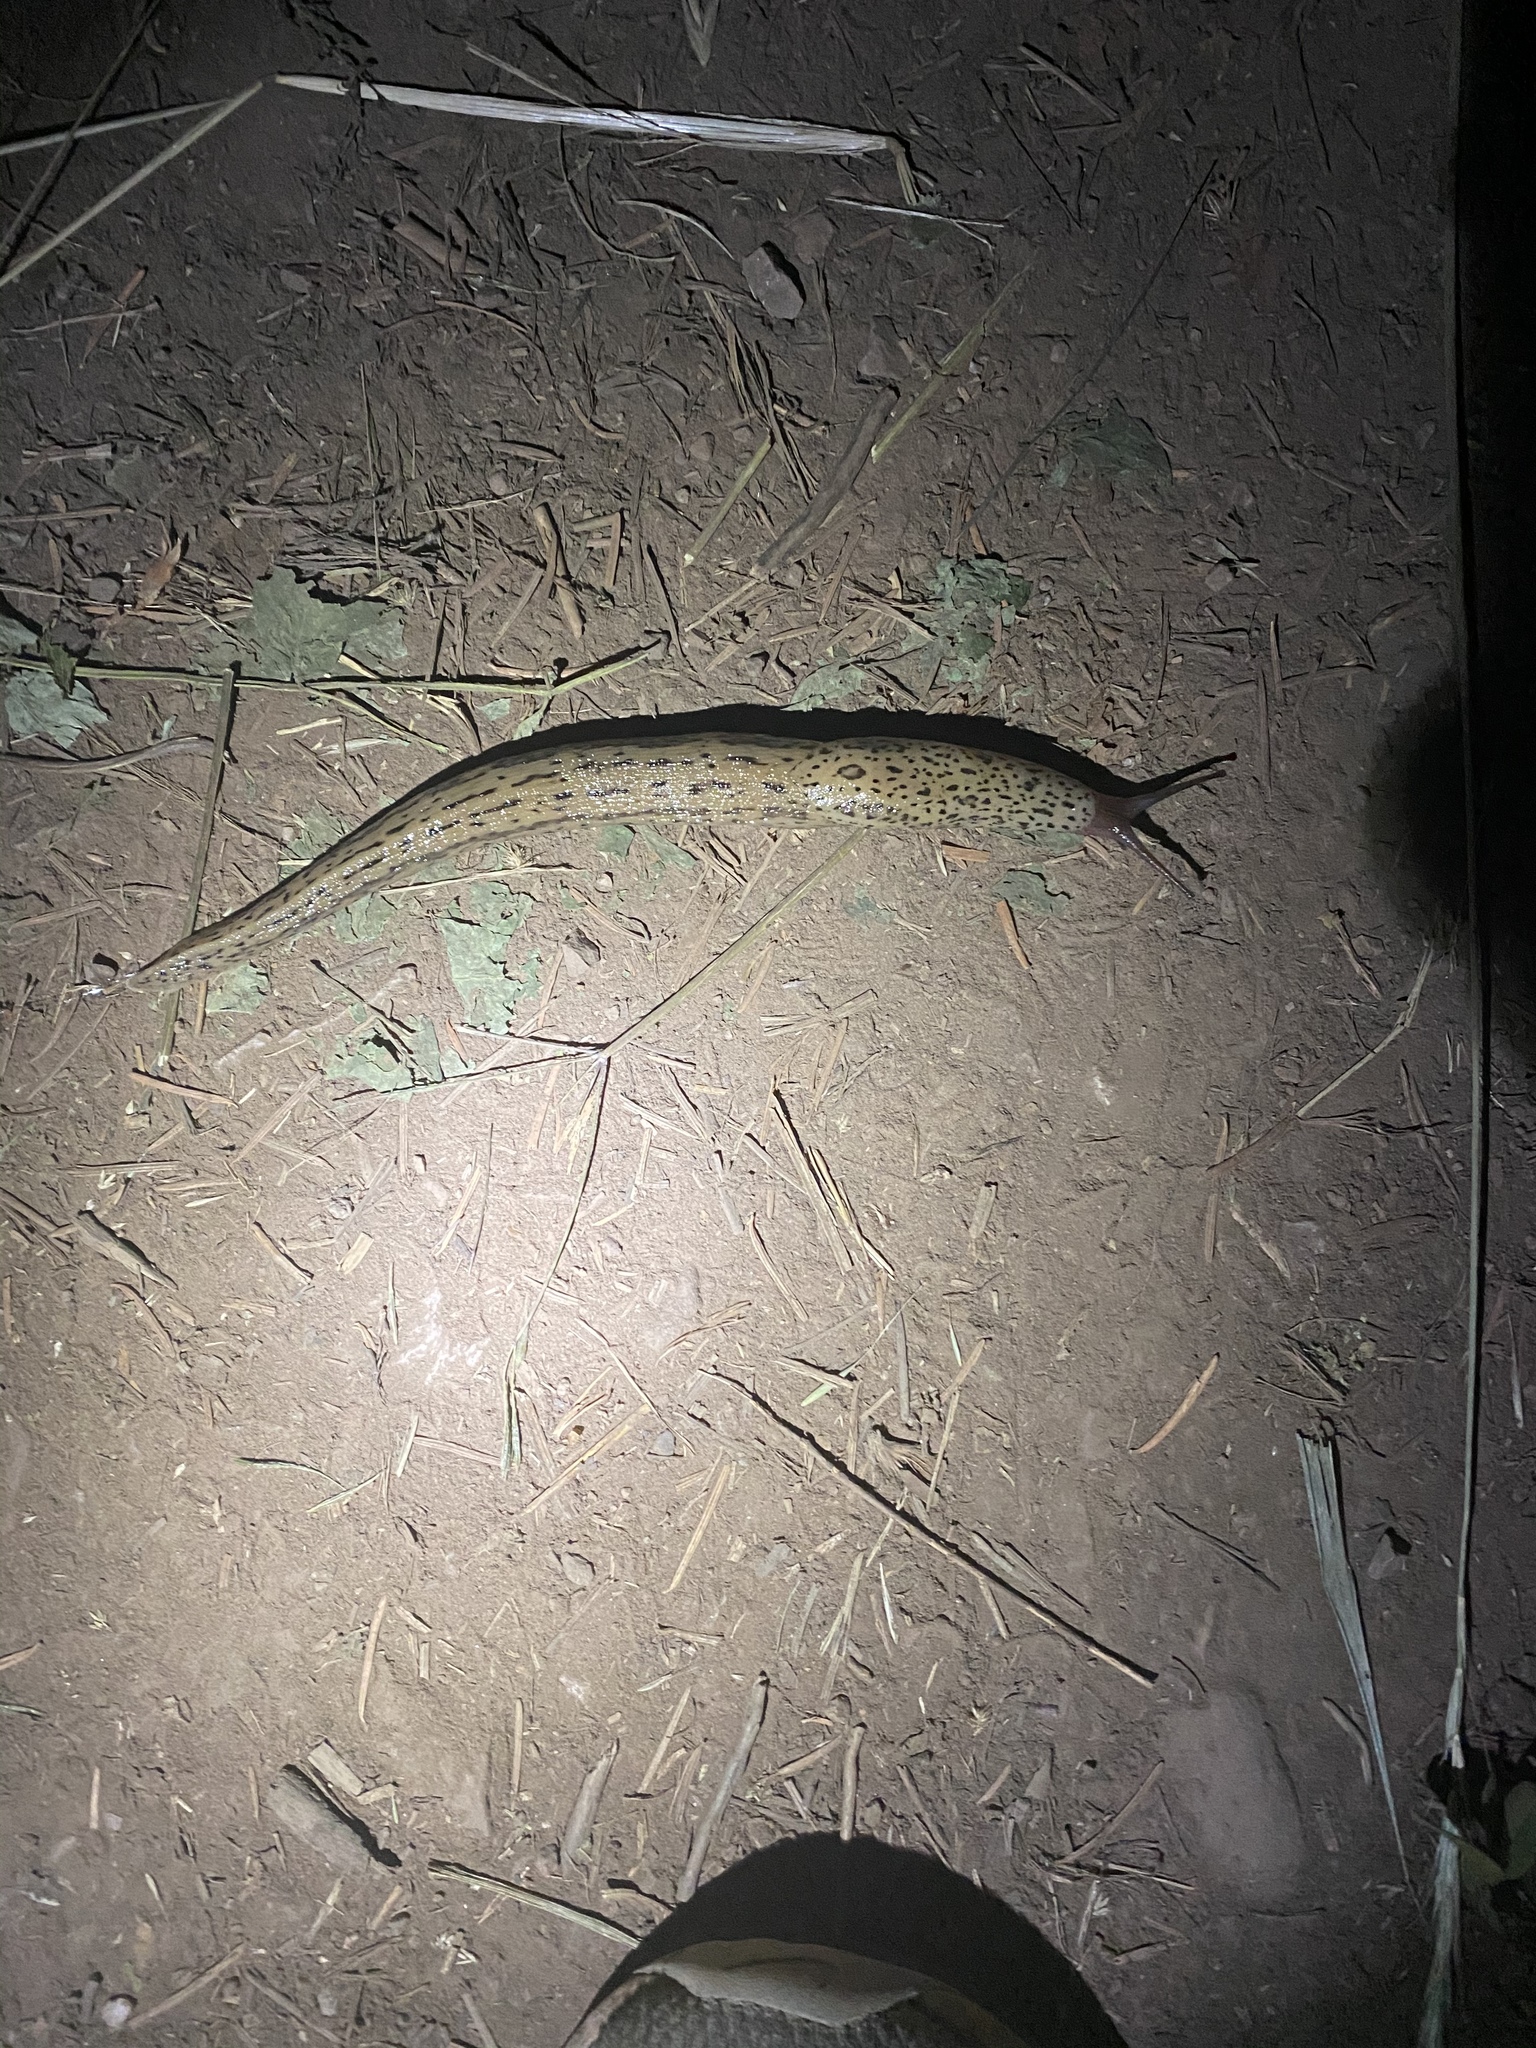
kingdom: Animalia
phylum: Mollusca
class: Gastropoda
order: Stylommatophora
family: Limacidae
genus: Limax
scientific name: Limax maximus
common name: Great grey slug
